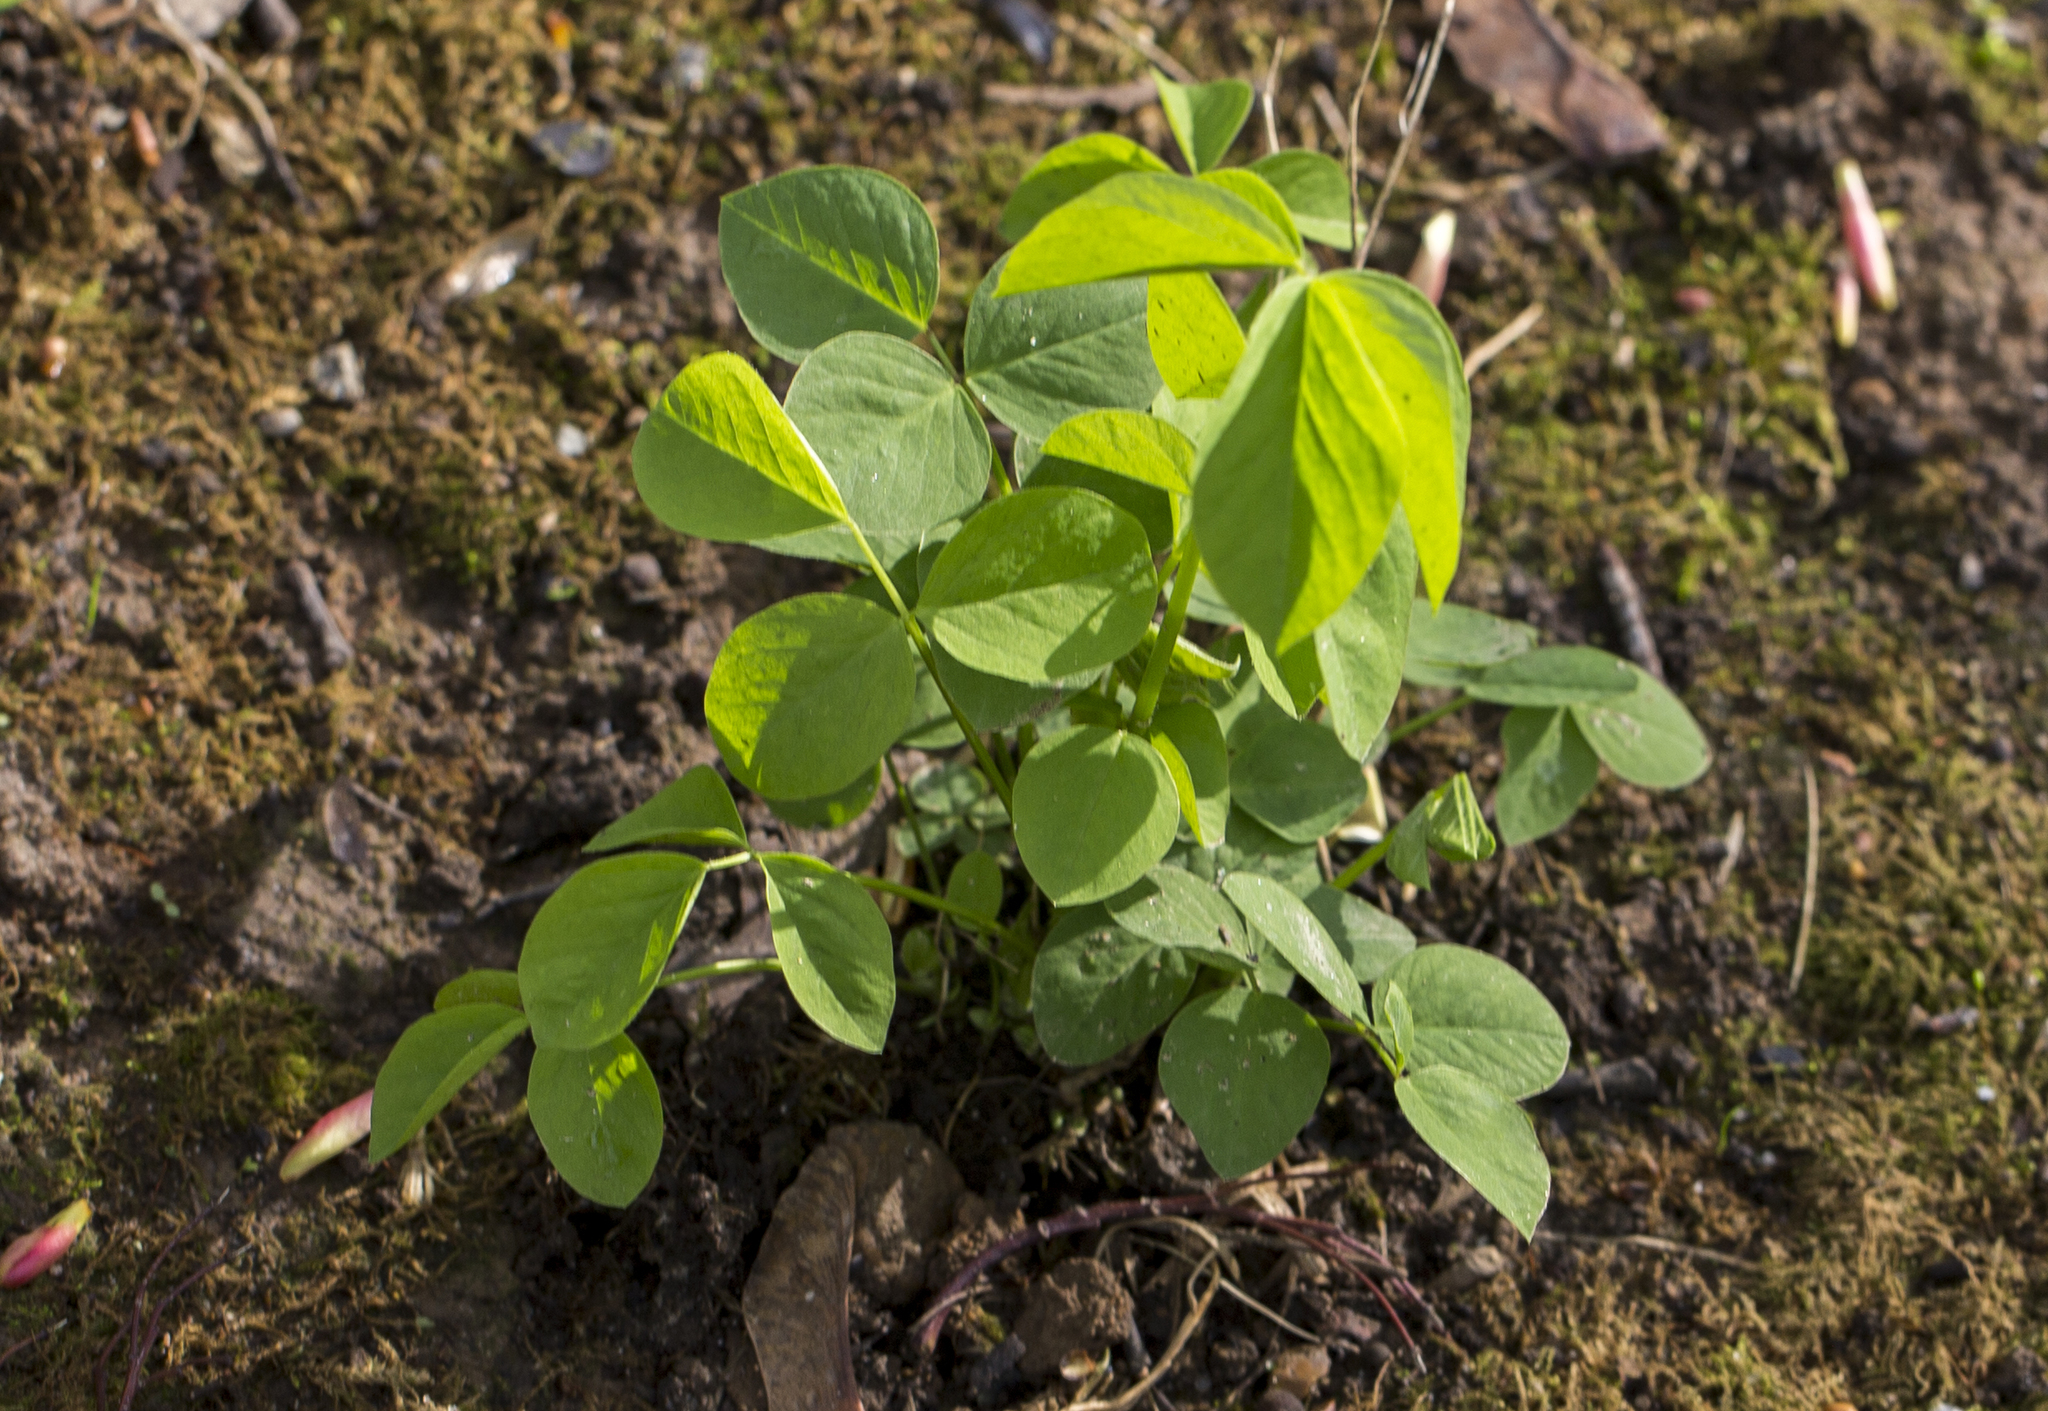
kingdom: Plantae
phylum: Tracheophyta
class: Magnoliopsida
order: Fabales
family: Fabaceae
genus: Galega
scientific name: Galega orientalis
